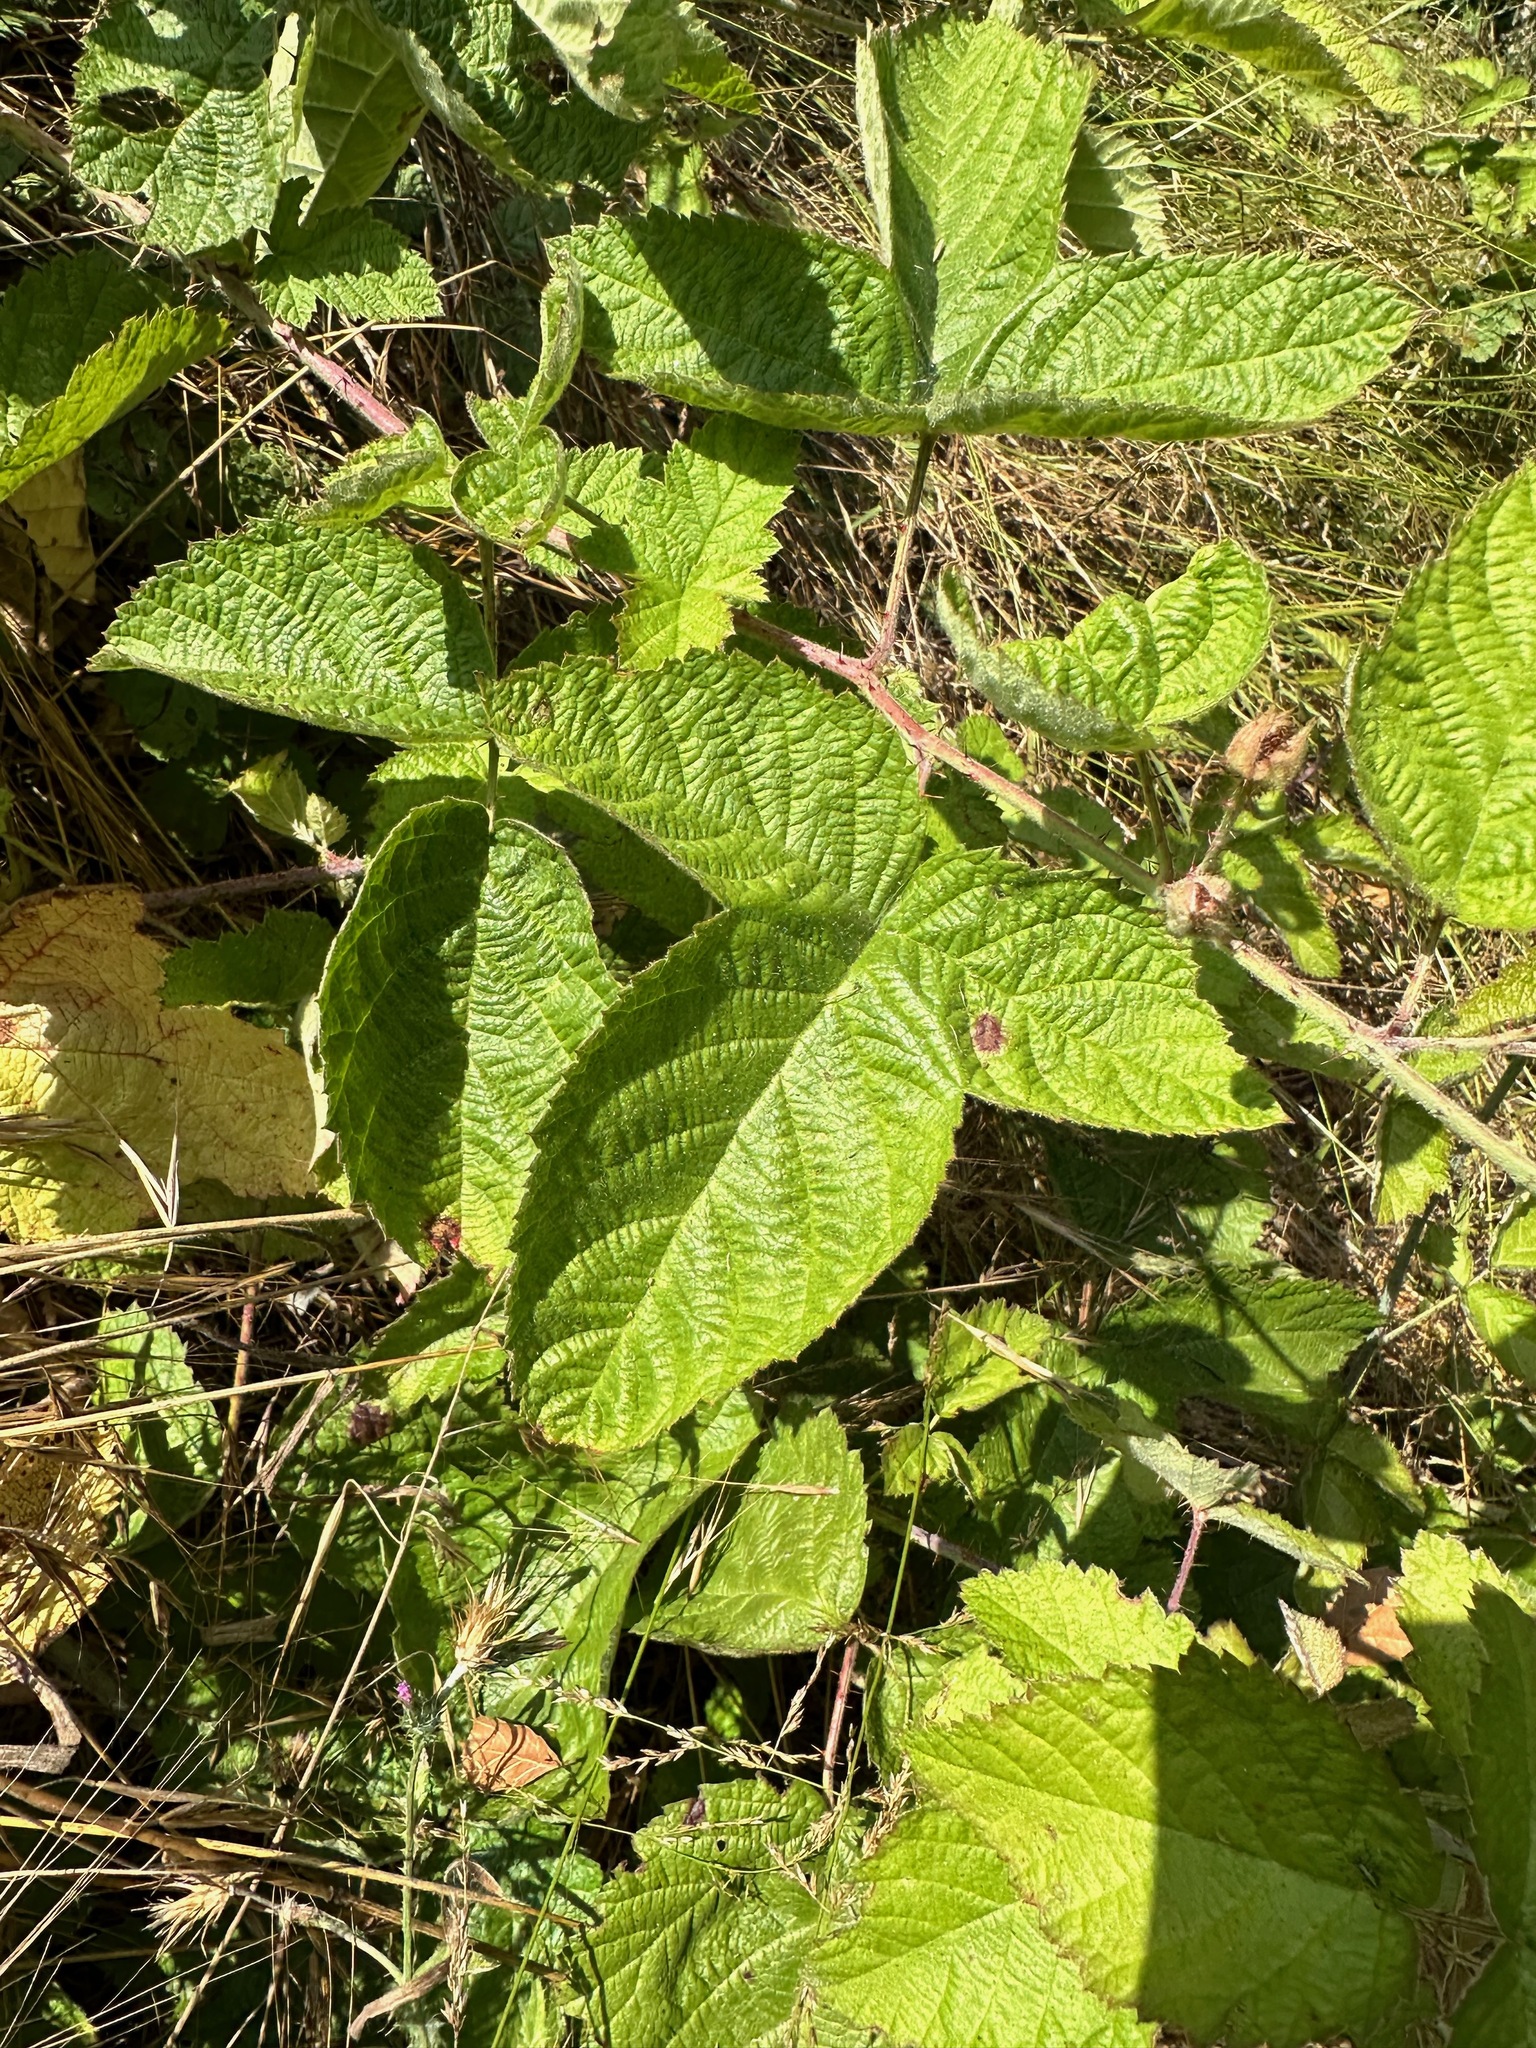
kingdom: Plantae
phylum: Tracheophyta
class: Magnoliopsida
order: Rosales
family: Rosaceae
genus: Rubus
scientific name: Rubus ursinus
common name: Pacific blackberry
